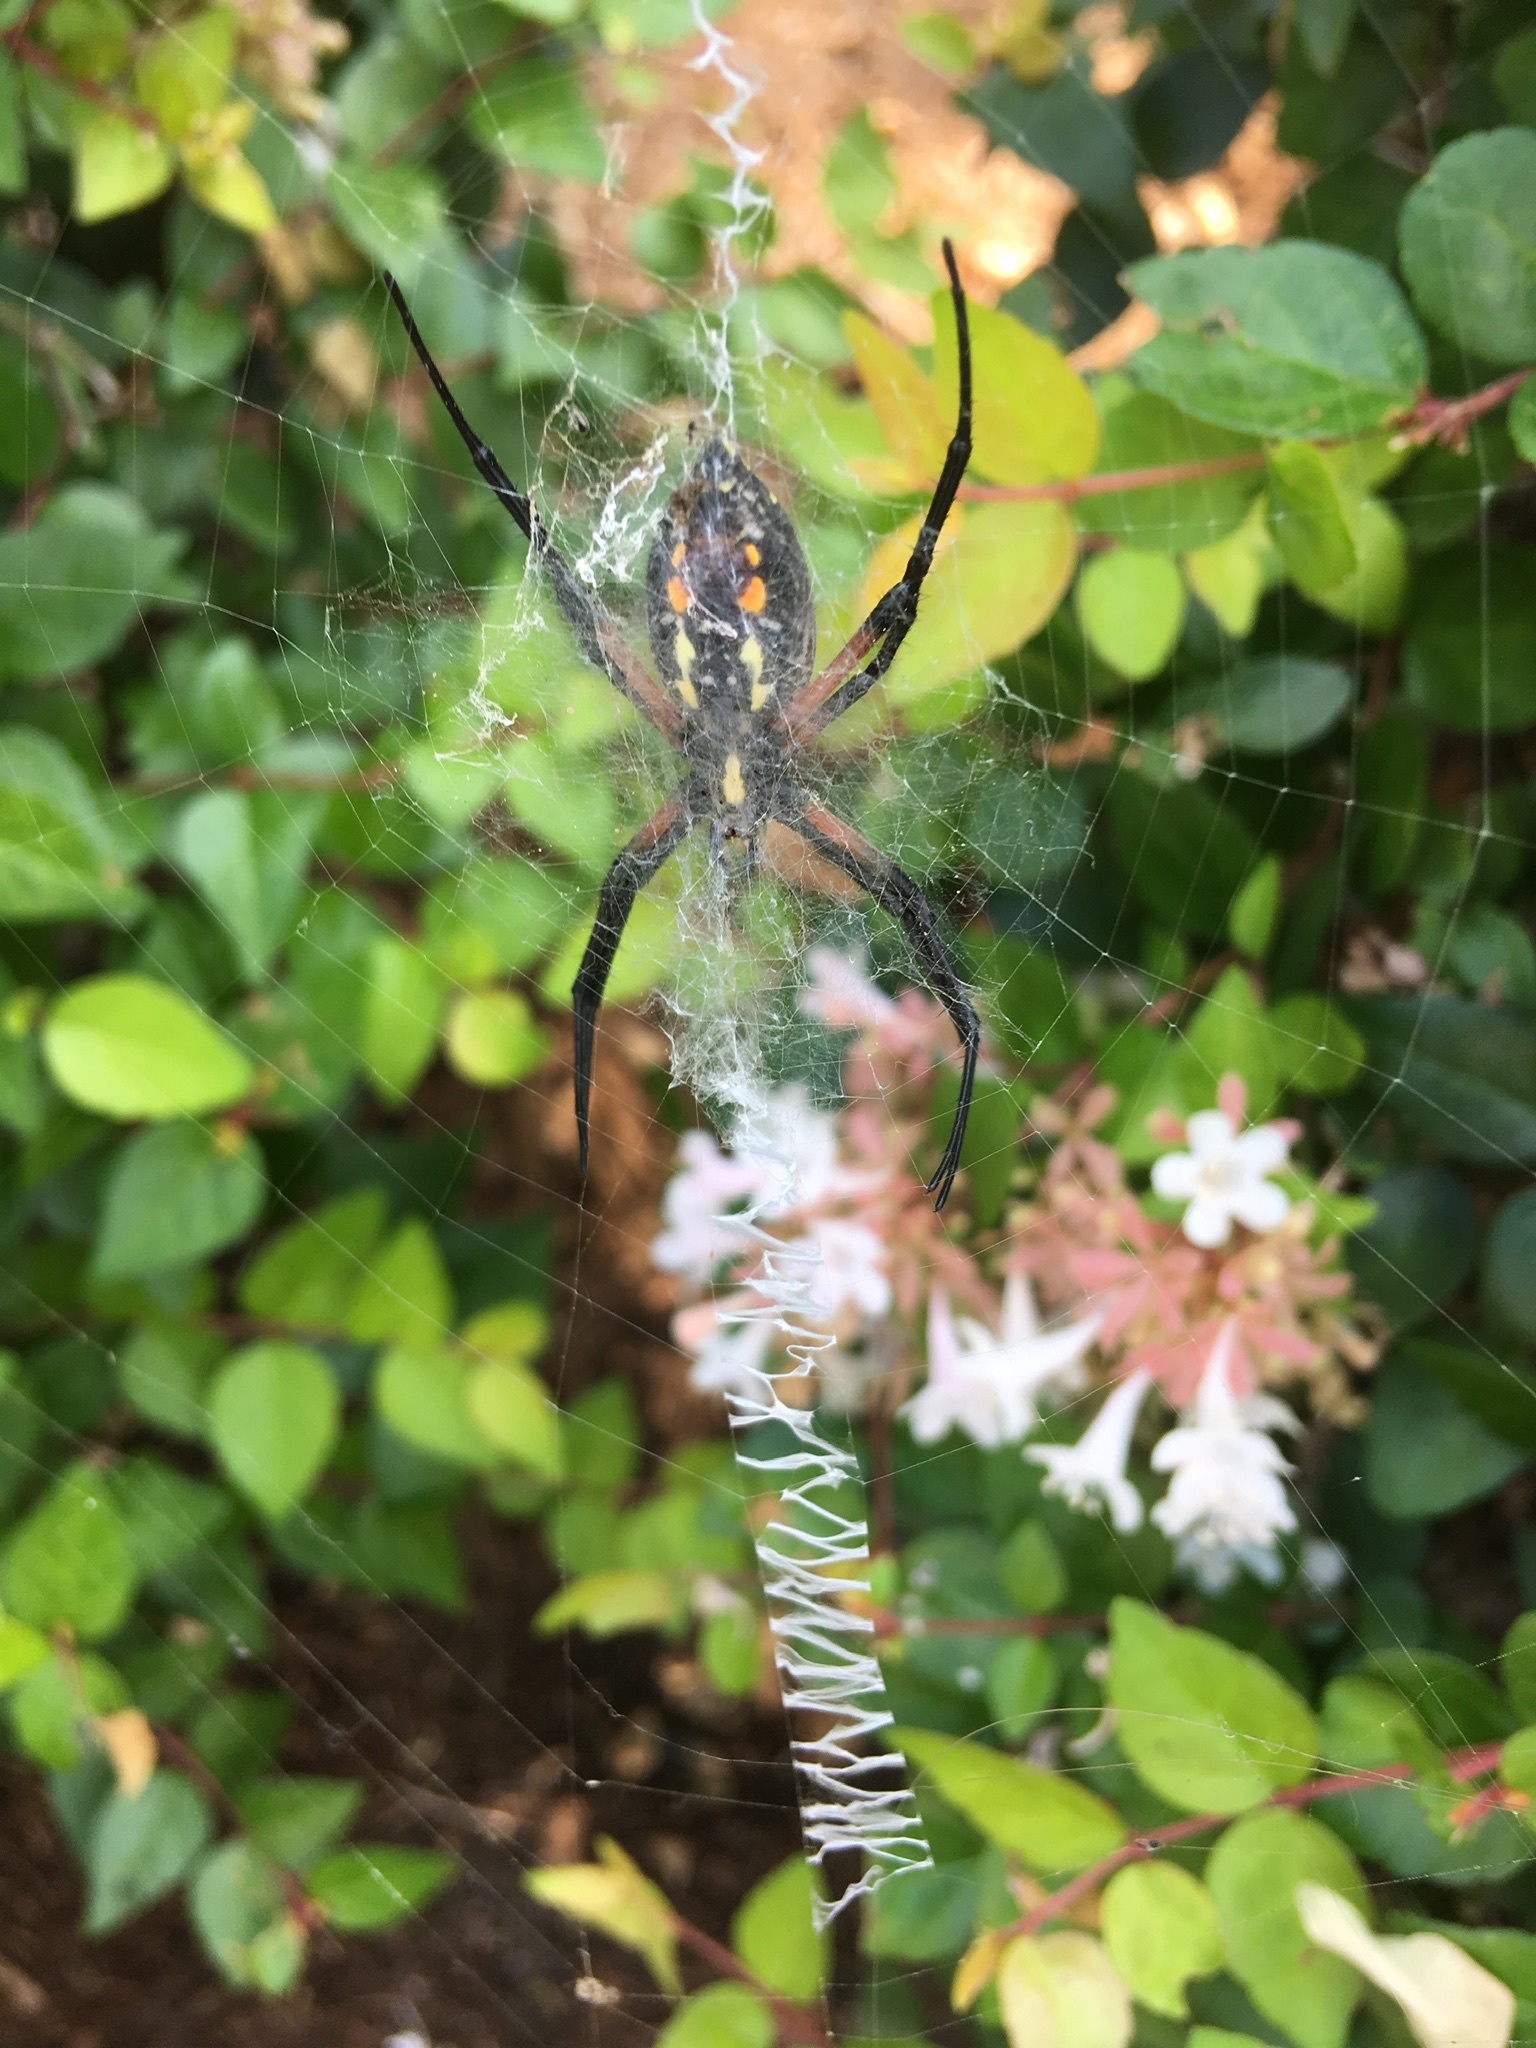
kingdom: Animalia
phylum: Arthropoda
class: Arachnida
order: Araneae
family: Araneidae
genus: Argiope
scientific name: Argiope aurantia
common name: Orb weavers
